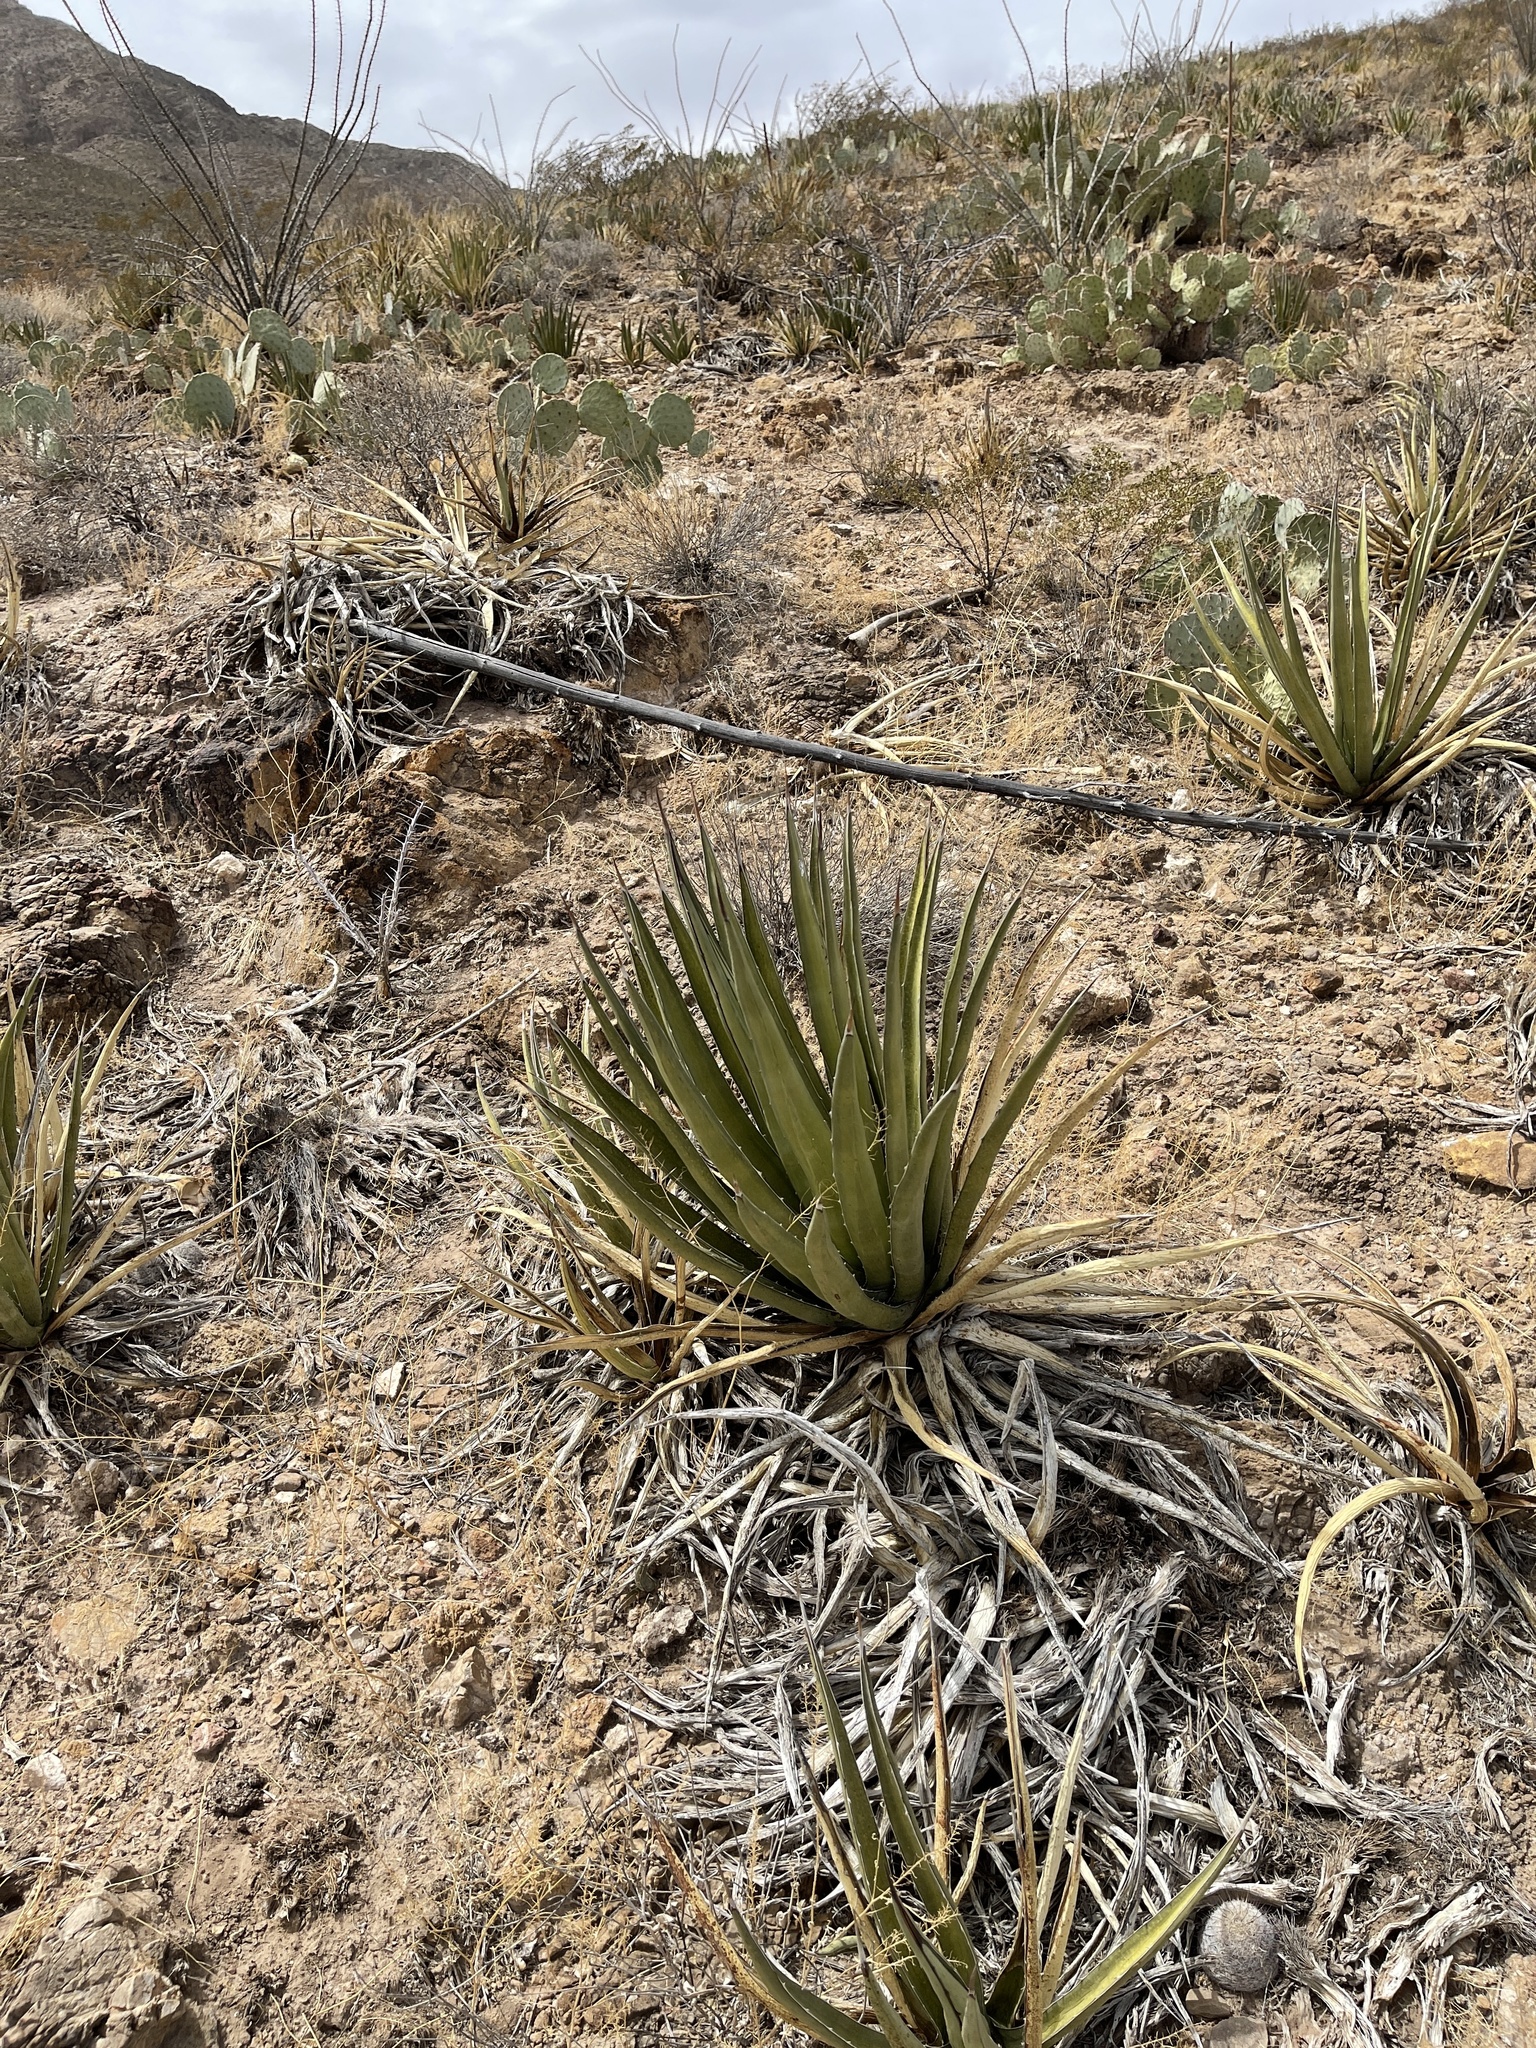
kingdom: Plantae
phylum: Tracheophyta
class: Liliopsida
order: Asparagales
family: Asparagaceae
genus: Agave
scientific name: Agave lechuguilla
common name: Lecheguilla agave
